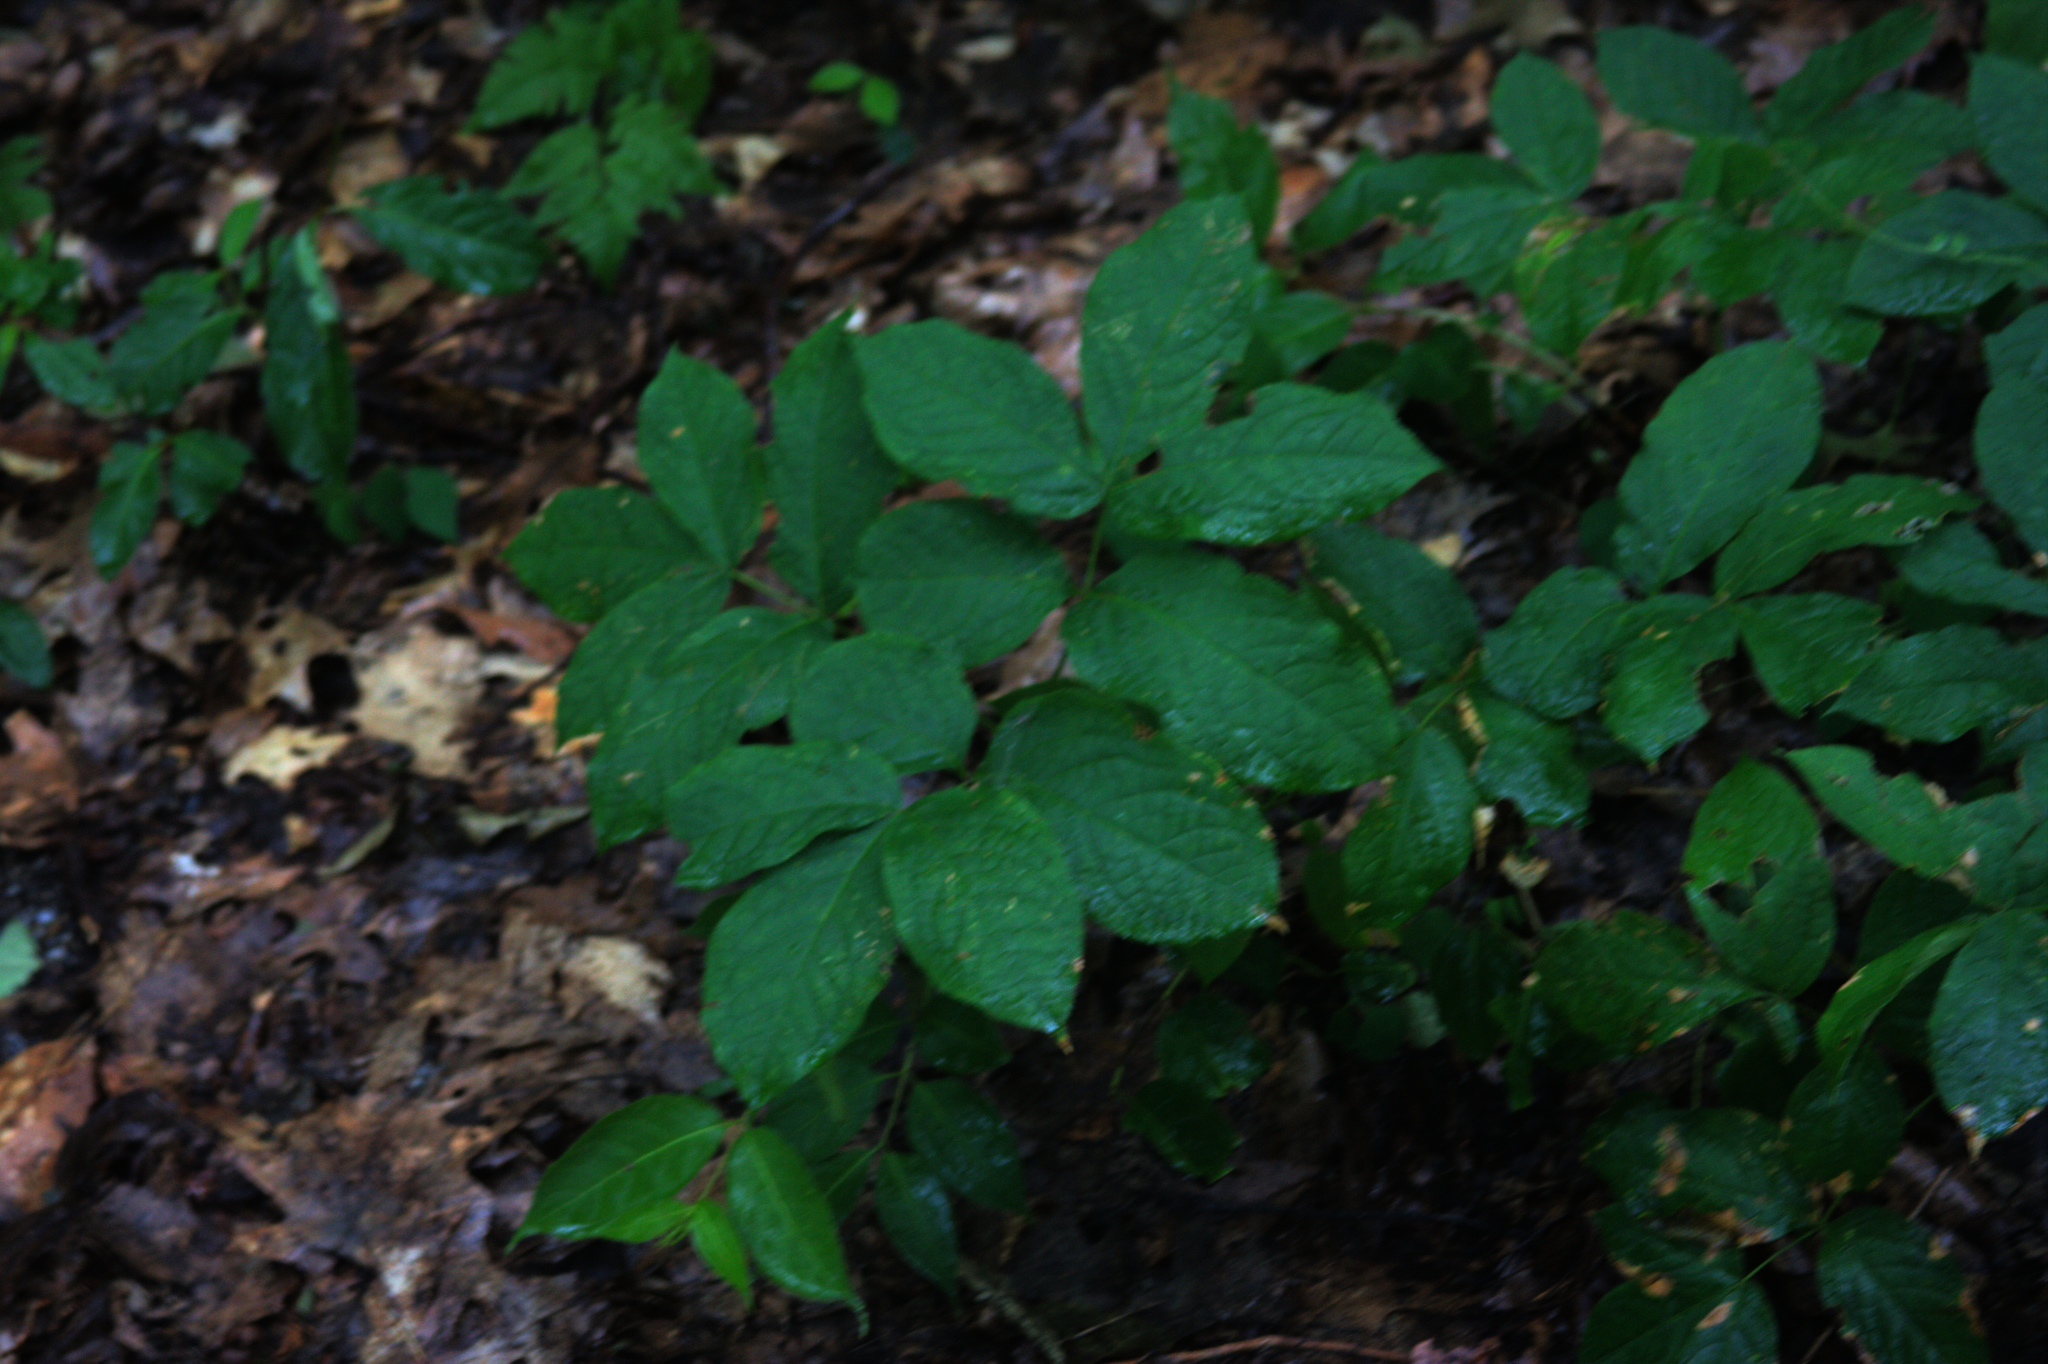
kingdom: Plantae
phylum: Tracheophyta
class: Magnoliopsida
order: Apiales
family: Araliaceae
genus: Aralia
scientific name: Aralia nudicaulis
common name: Wild sarsaparilla
